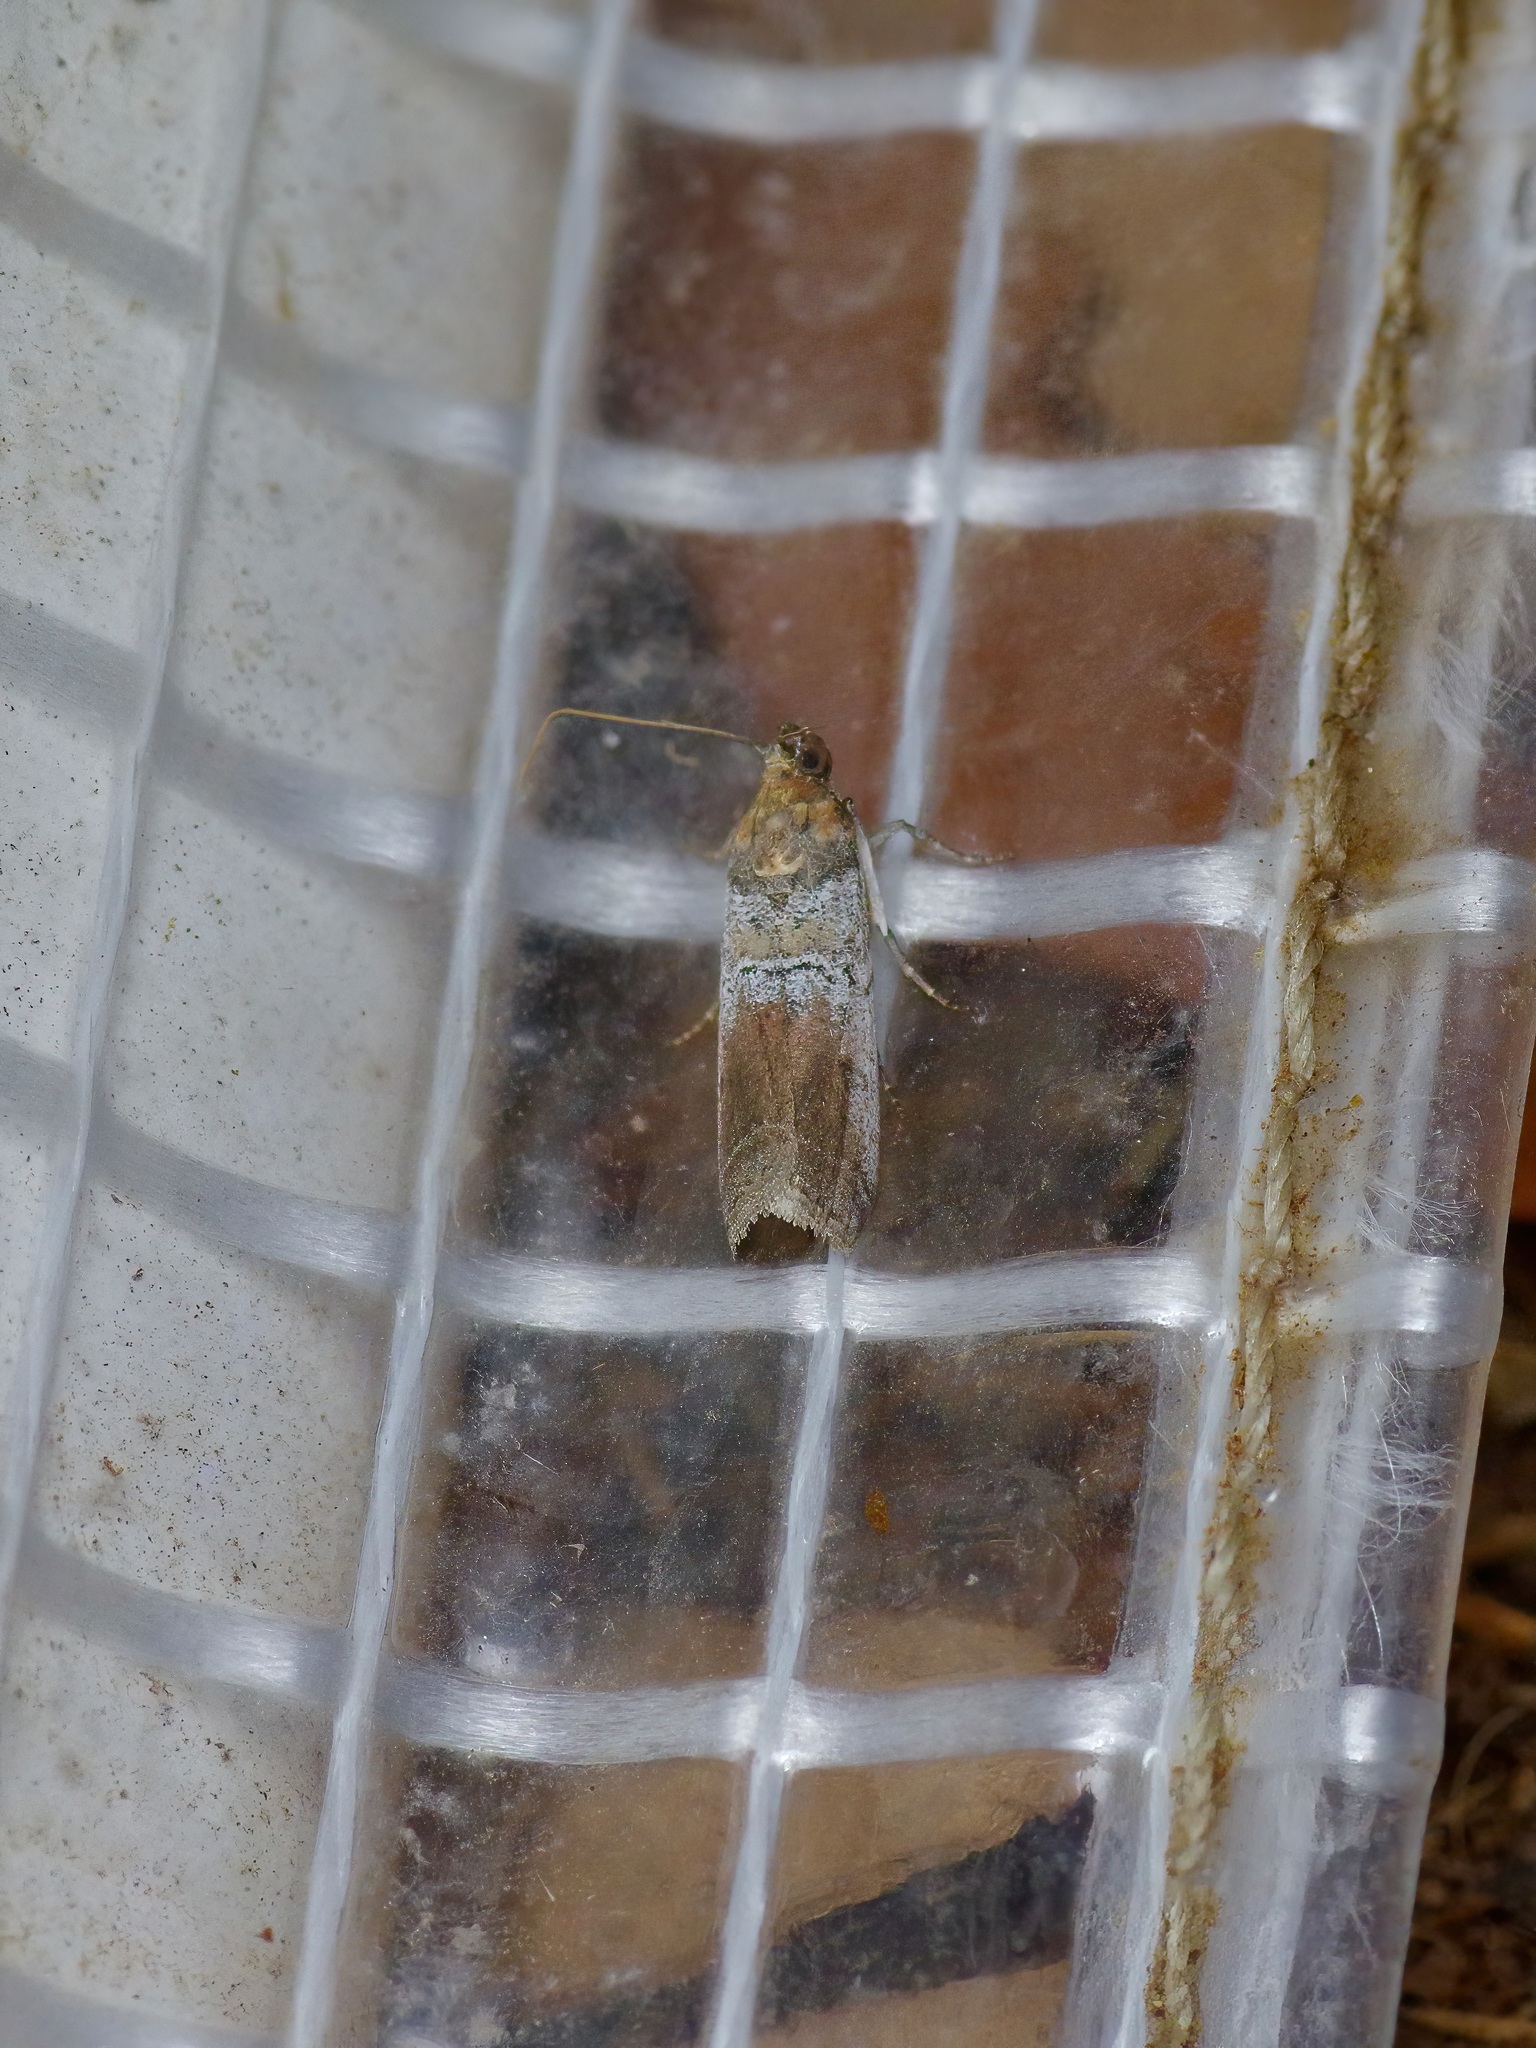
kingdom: Animalia
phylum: Arthropoda
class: Insecta
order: Lepidoptera
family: Pyralidae
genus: Chararica
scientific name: Chararica hystriculella
